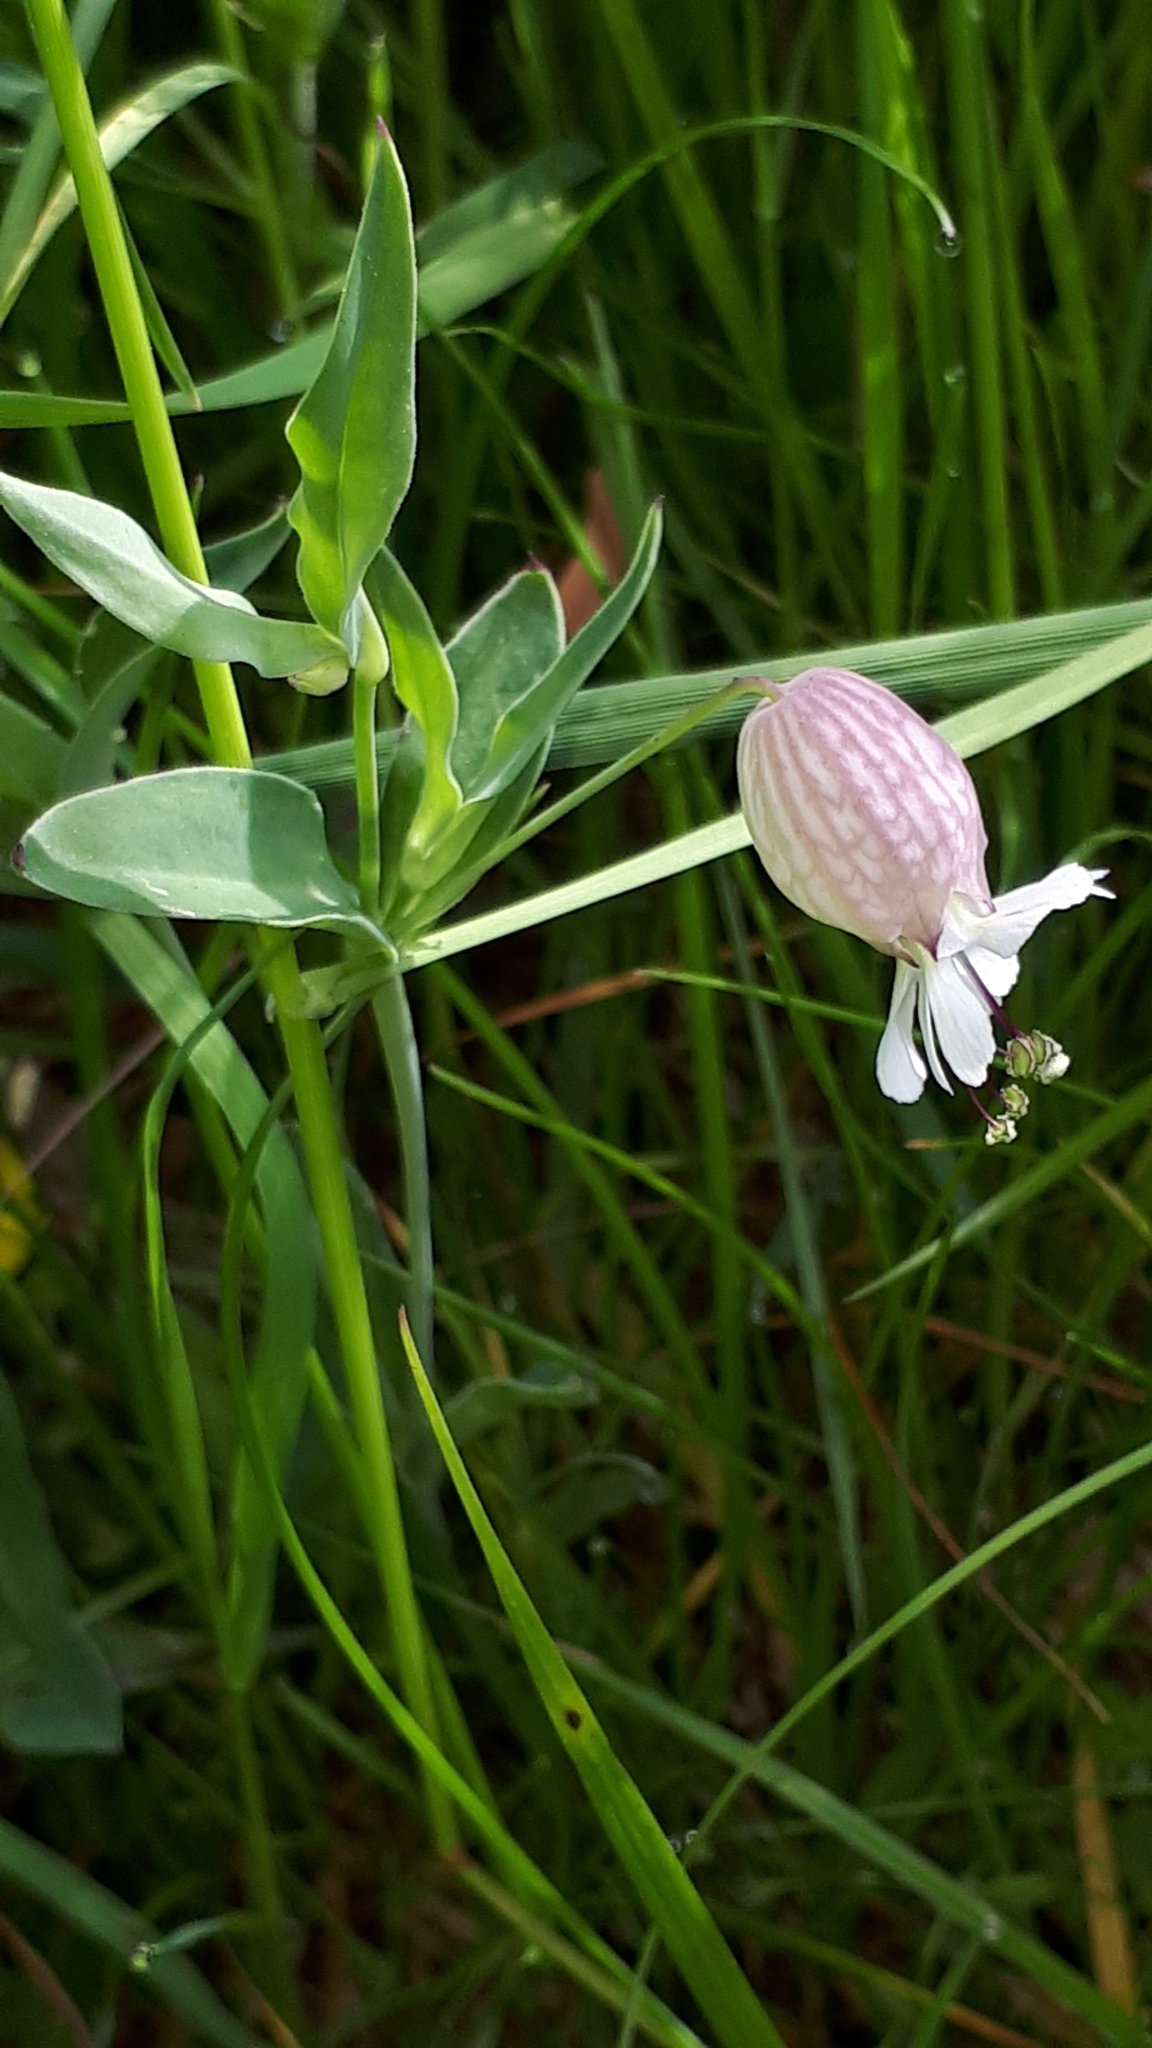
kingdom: Plantae
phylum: Tracheophyta
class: Magnoliopsida
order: Caryophyllales
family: Caryophyllaceae
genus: Silene
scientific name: Silene vulgaris
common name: Bladder campion
